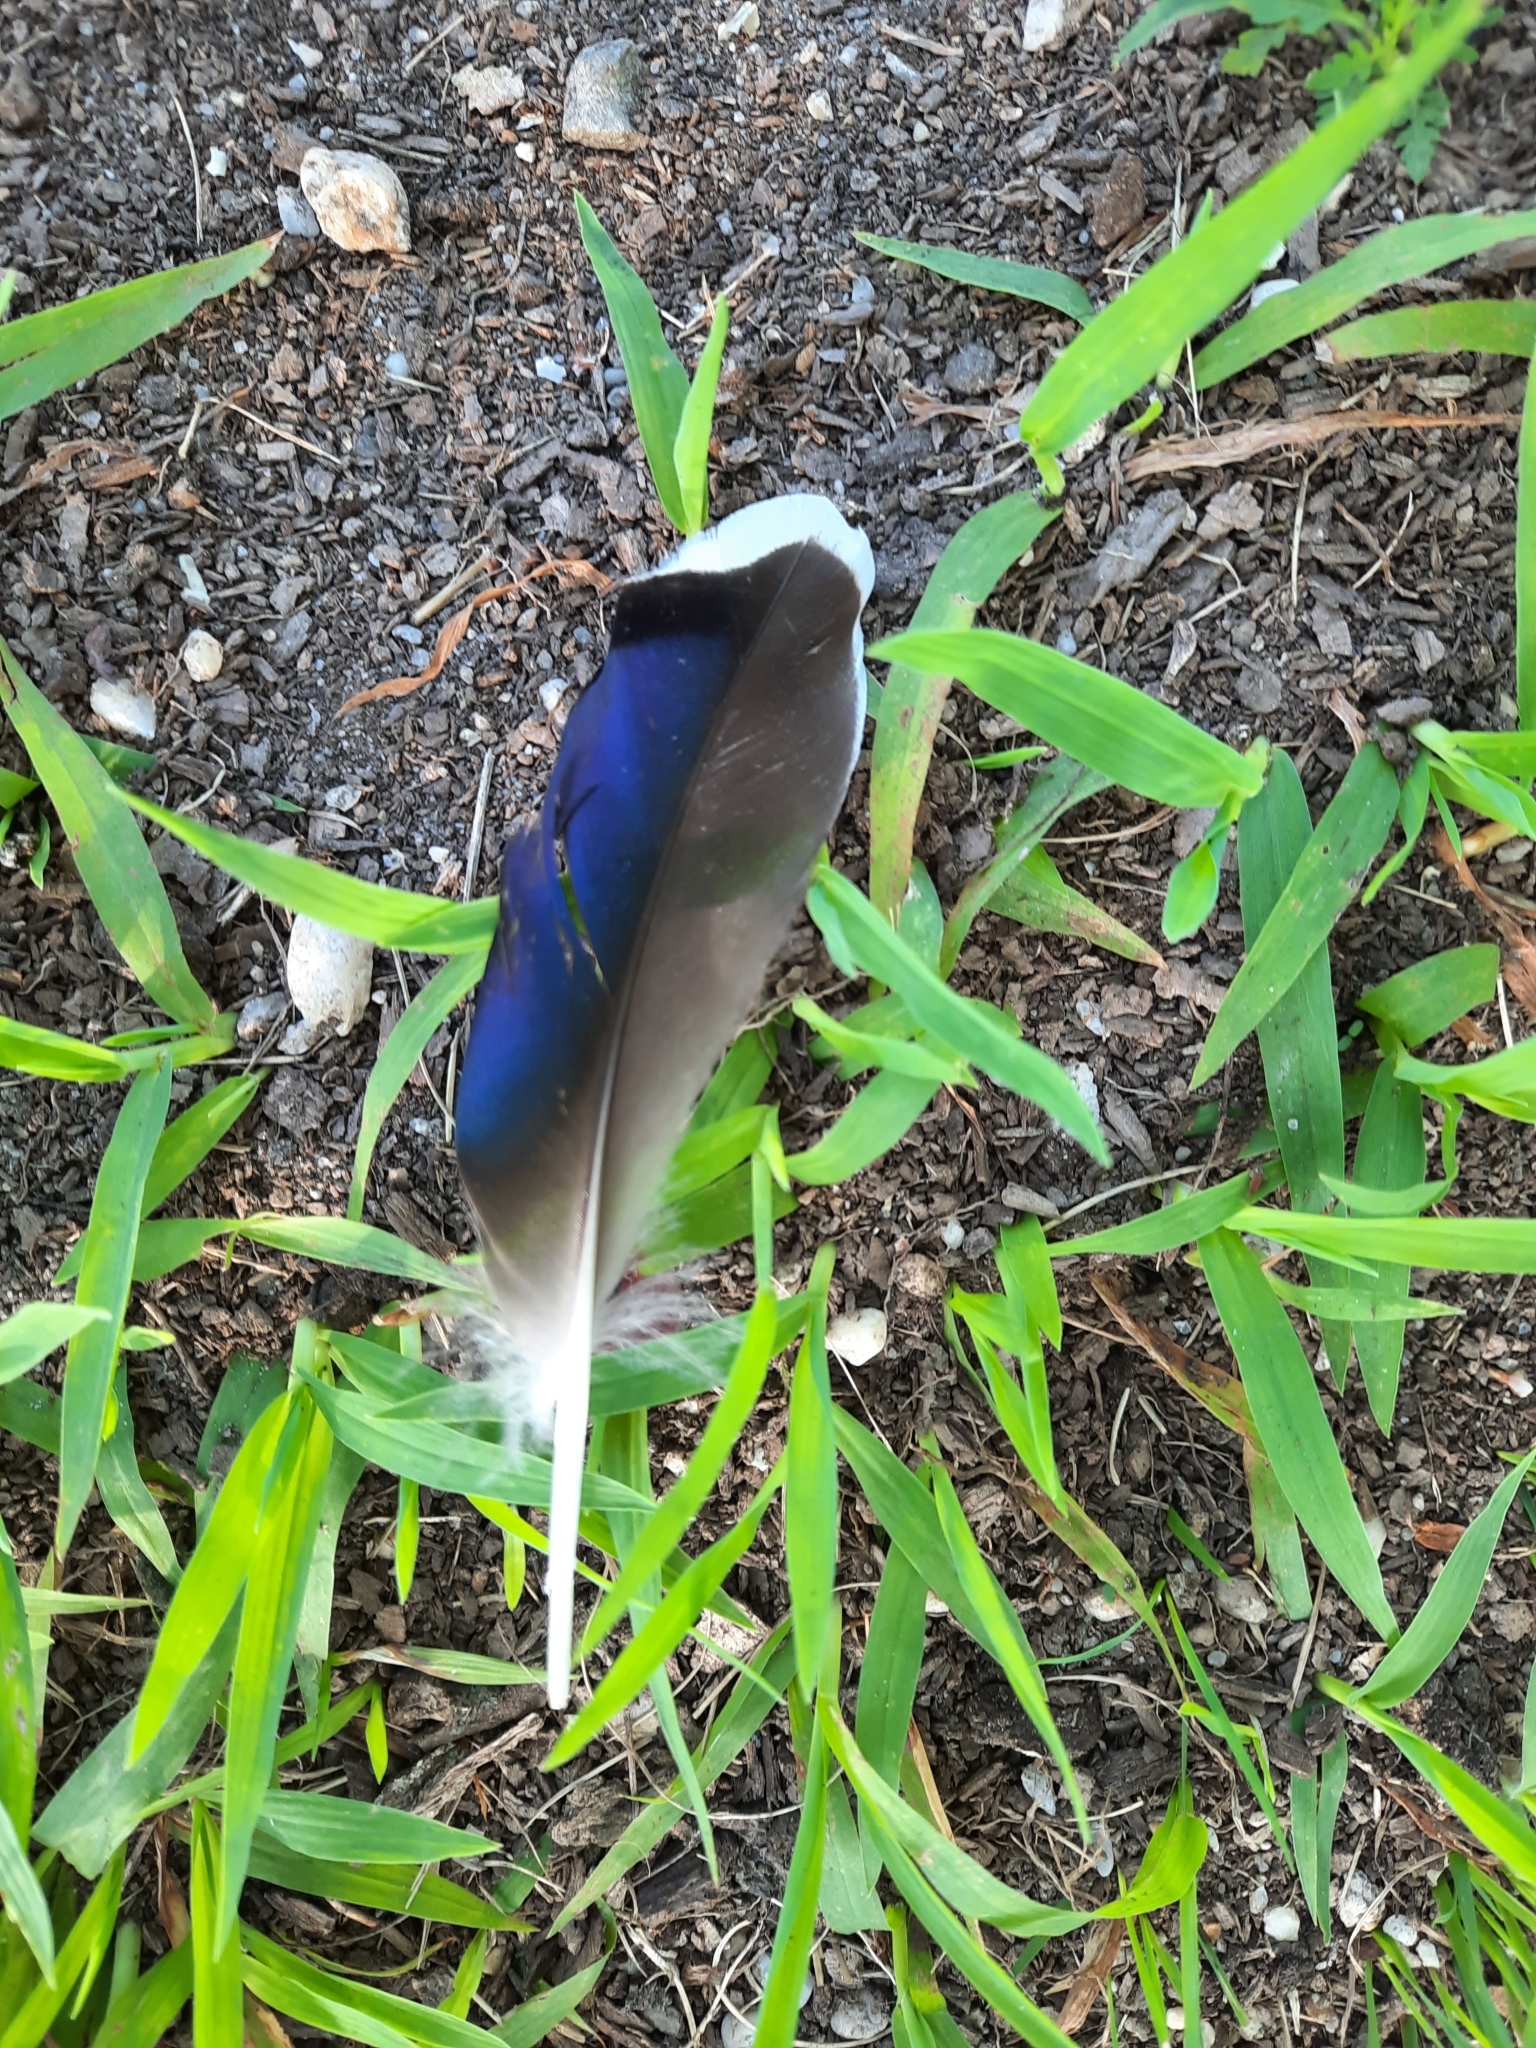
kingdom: Animalia
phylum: Chordata
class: Aves
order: Anseriformes
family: Anatidae
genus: Anas
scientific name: Anas platyrhynchos
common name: Mallard
